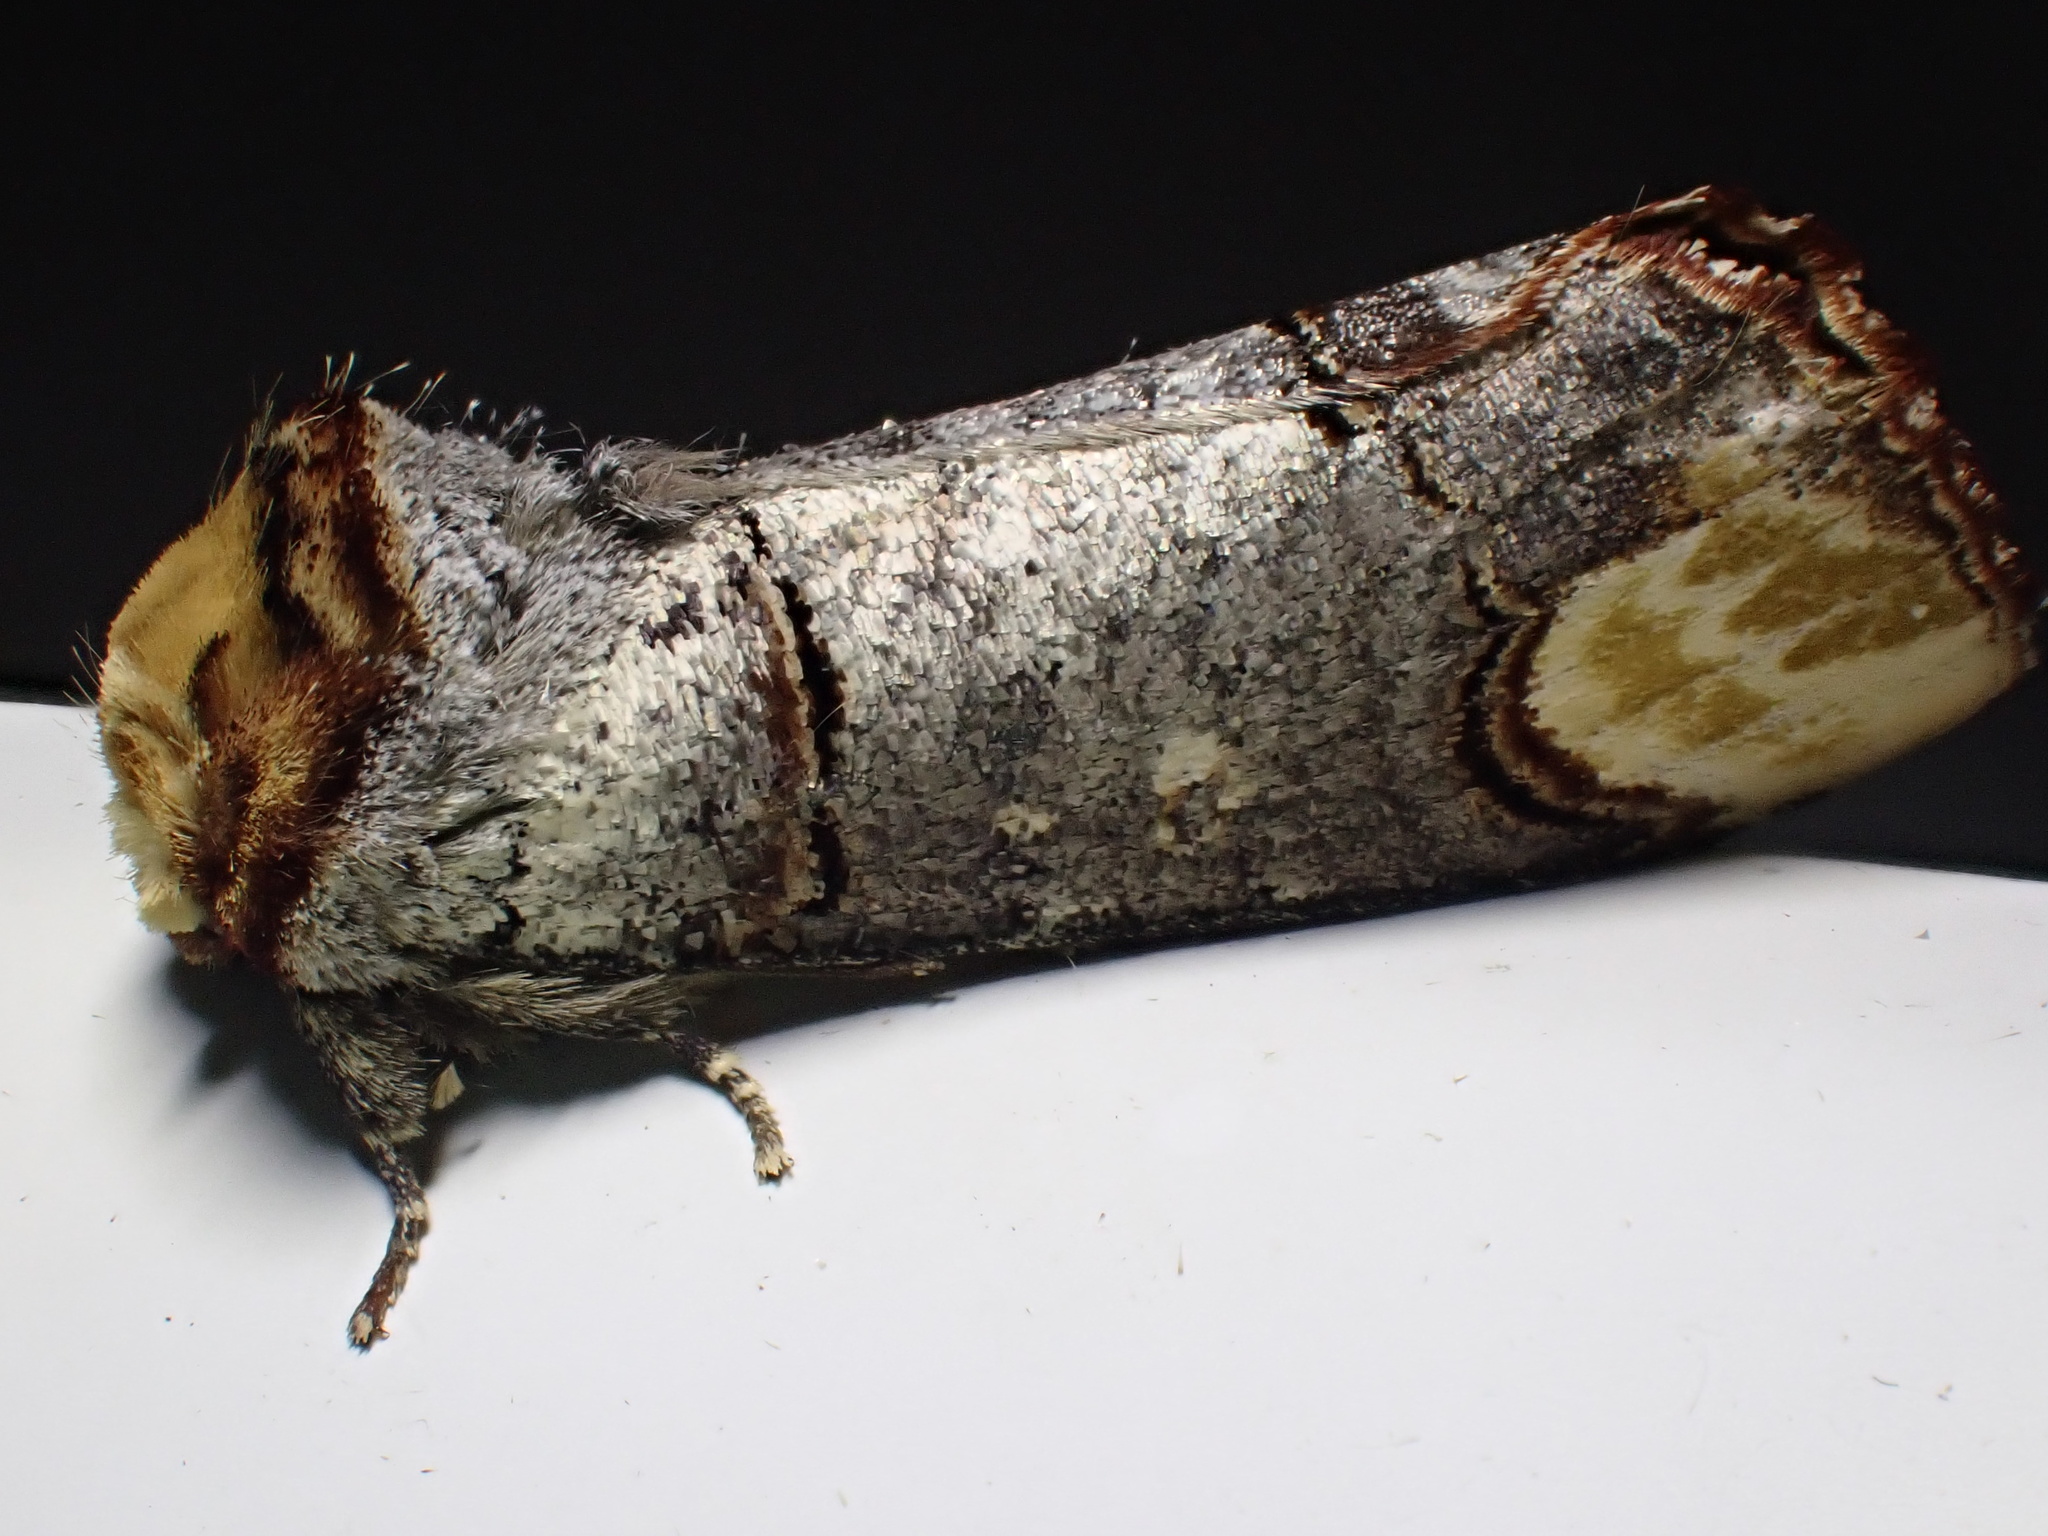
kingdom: Animalia
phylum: Arthropoda
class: Insecta
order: Lepidoptera
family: Notodontidae
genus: Phalera
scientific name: Phalera bucephala
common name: Buff-tip
